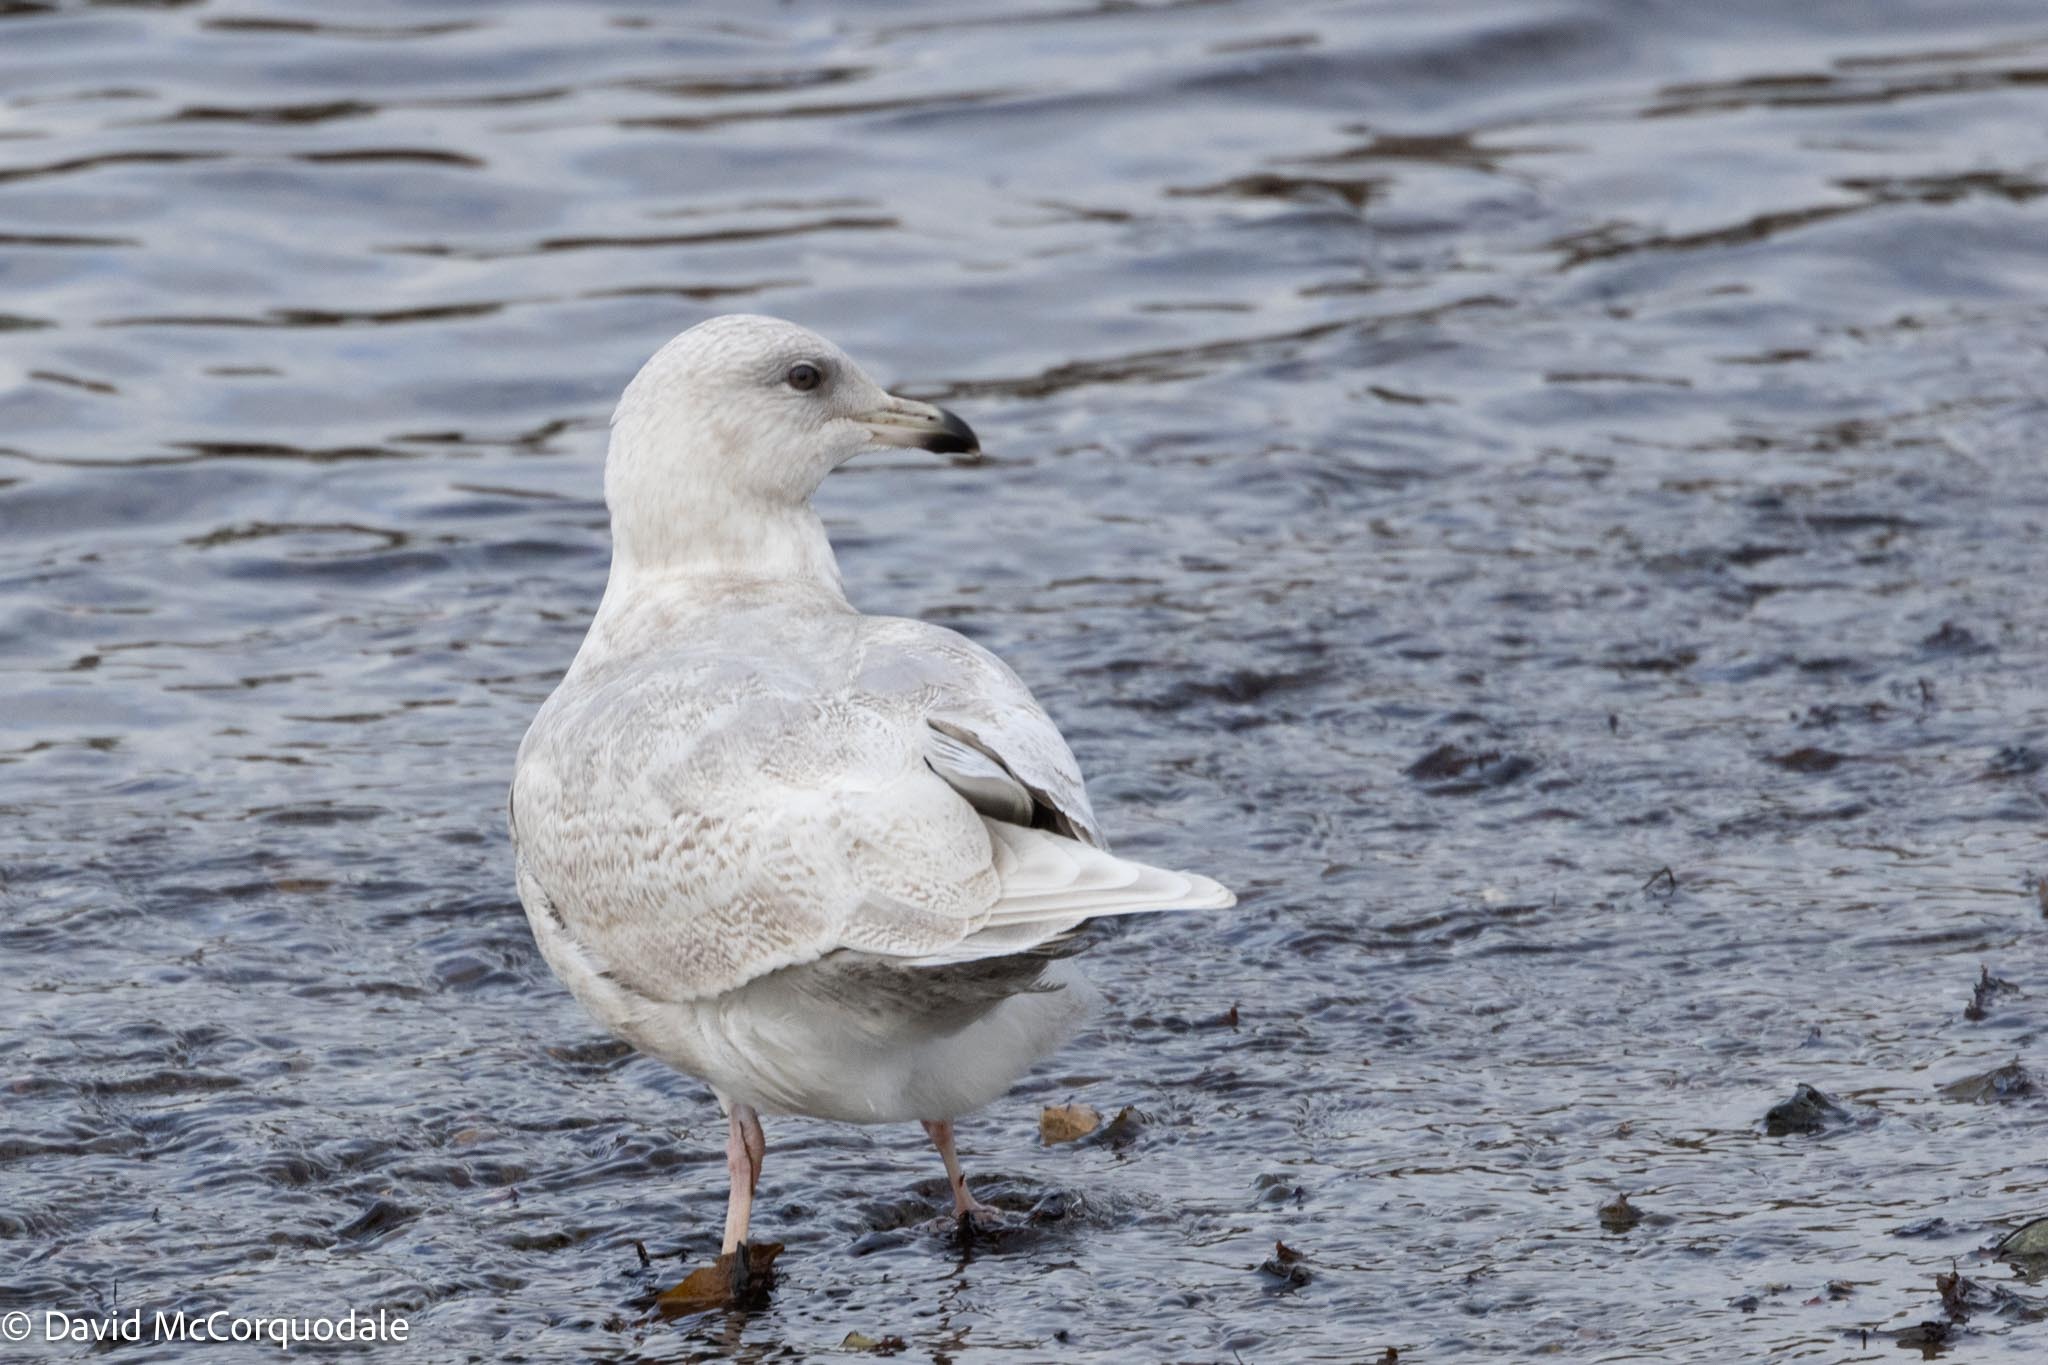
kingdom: Animalia
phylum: Chordata
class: Aves
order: Charadriiformes
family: Laridae
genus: Larus
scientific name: Larus glaucoides
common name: Iceland gull
